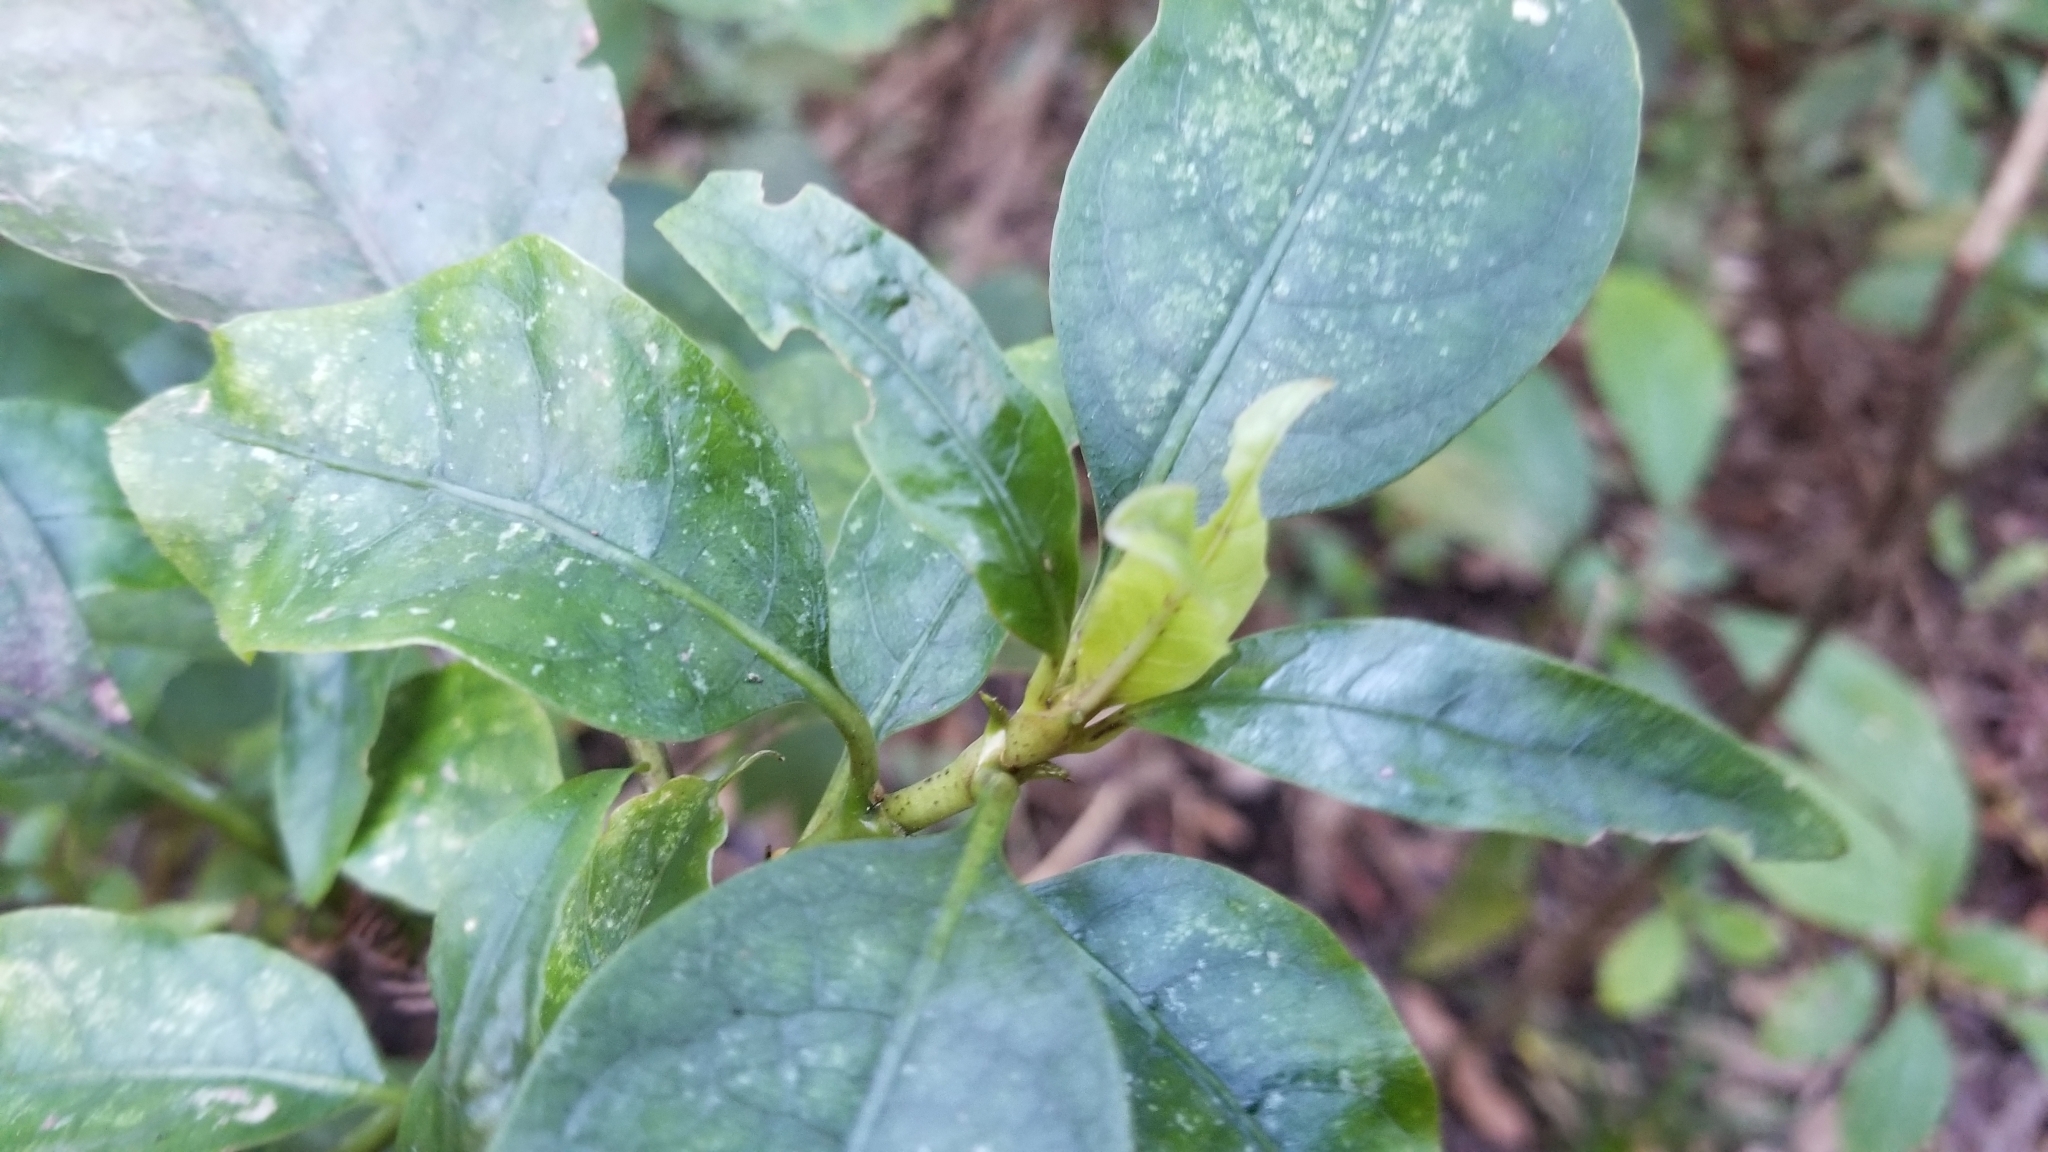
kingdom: Plantae
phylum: Tracheophyta
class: Magnoliopsida
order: Gentianales
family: Rubiaceae
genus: Coprosma
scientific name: Coprosma autumnalis
